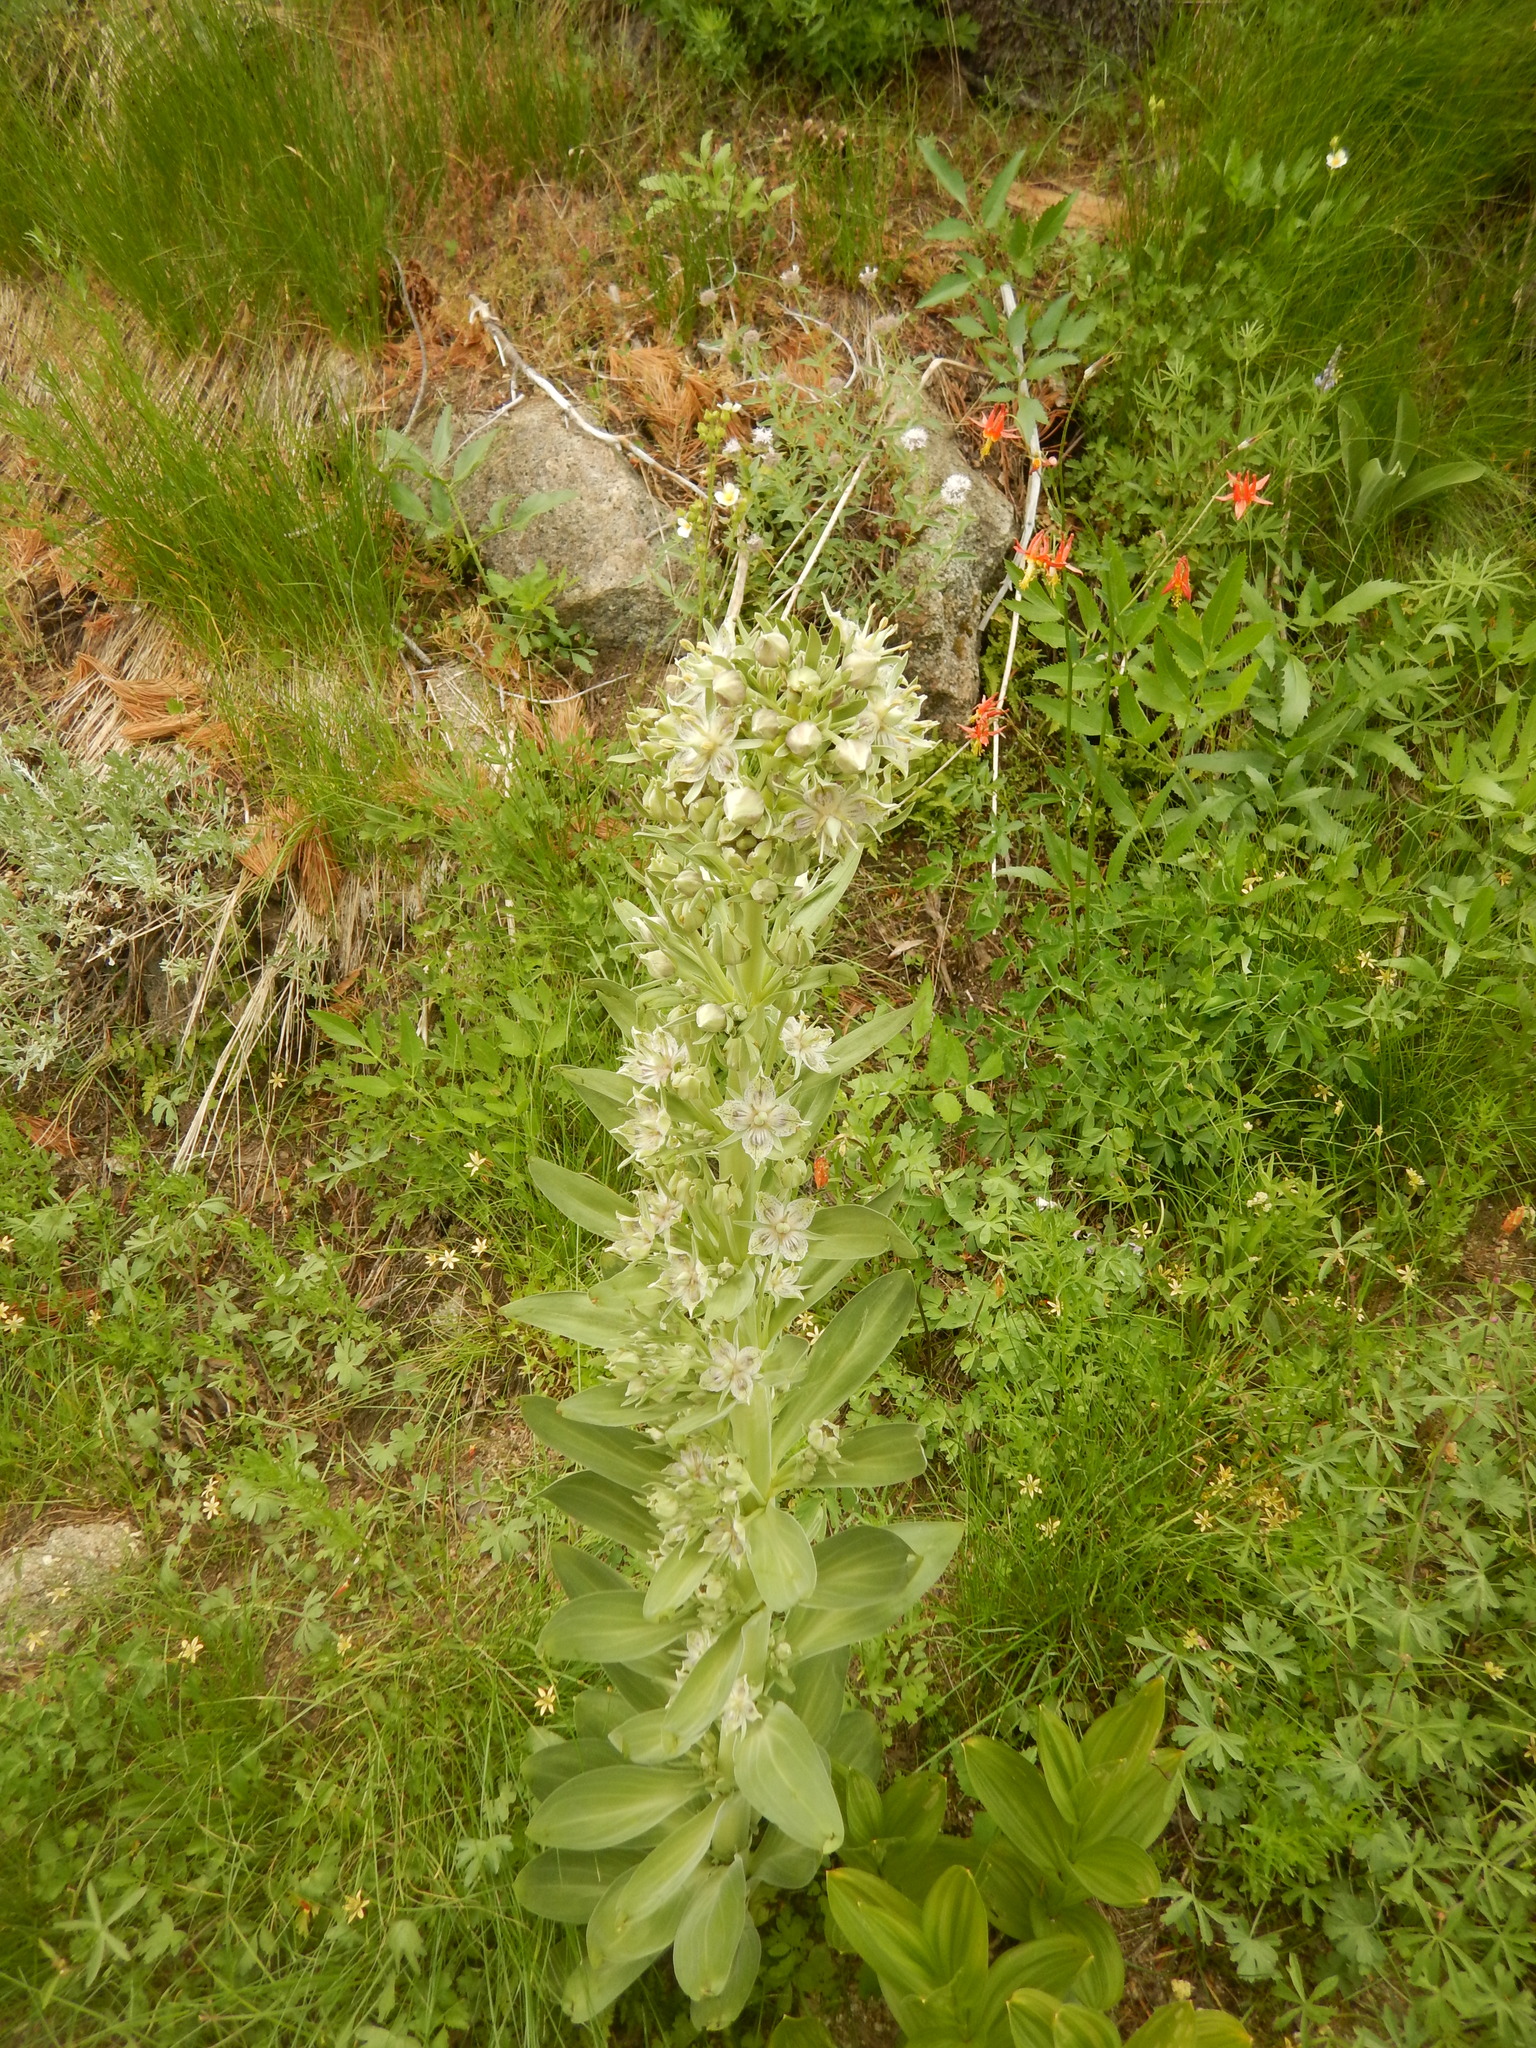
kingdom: Plantae
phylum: Tracheophyta
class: Magnoliopsida
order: Gentianales
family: Gentianaceae
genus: Frasera
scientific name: Frasera speciosa
